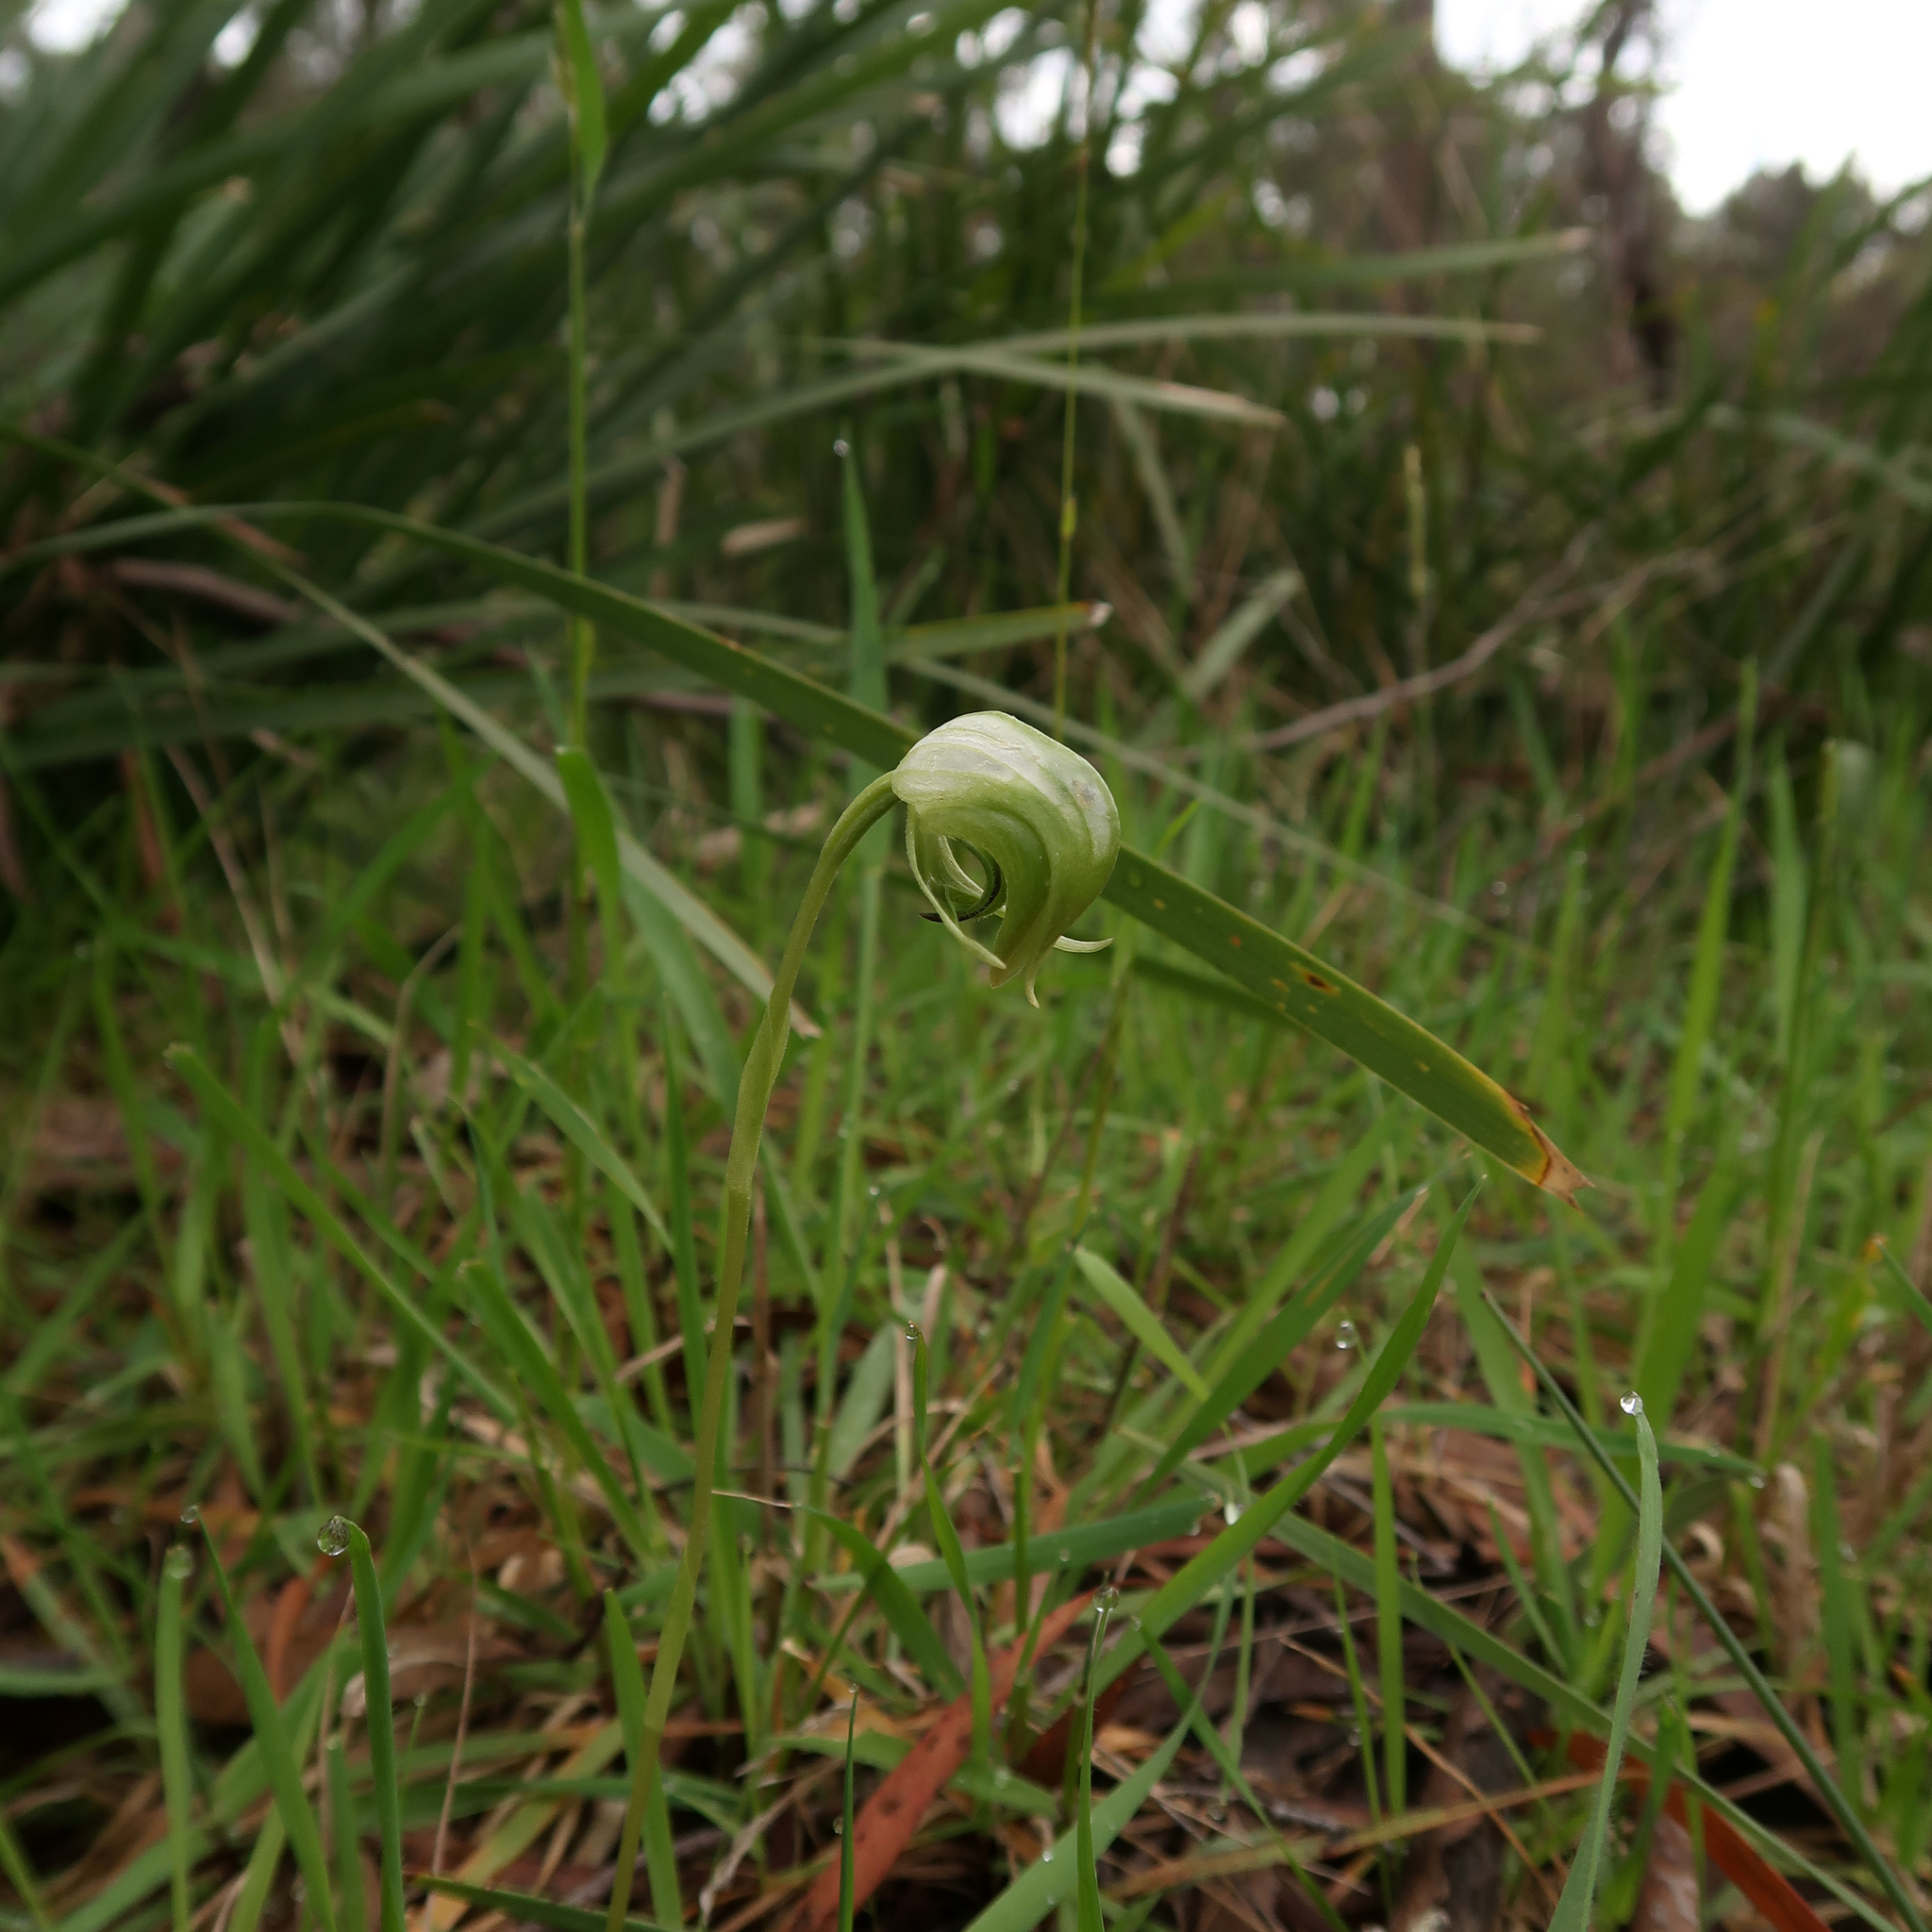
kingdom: Plantae
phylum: Tracheophyta
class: Liliopsida
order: Asparagales
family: Orchidaceae
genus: Pterostylis
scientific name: Pterostylis nutans
